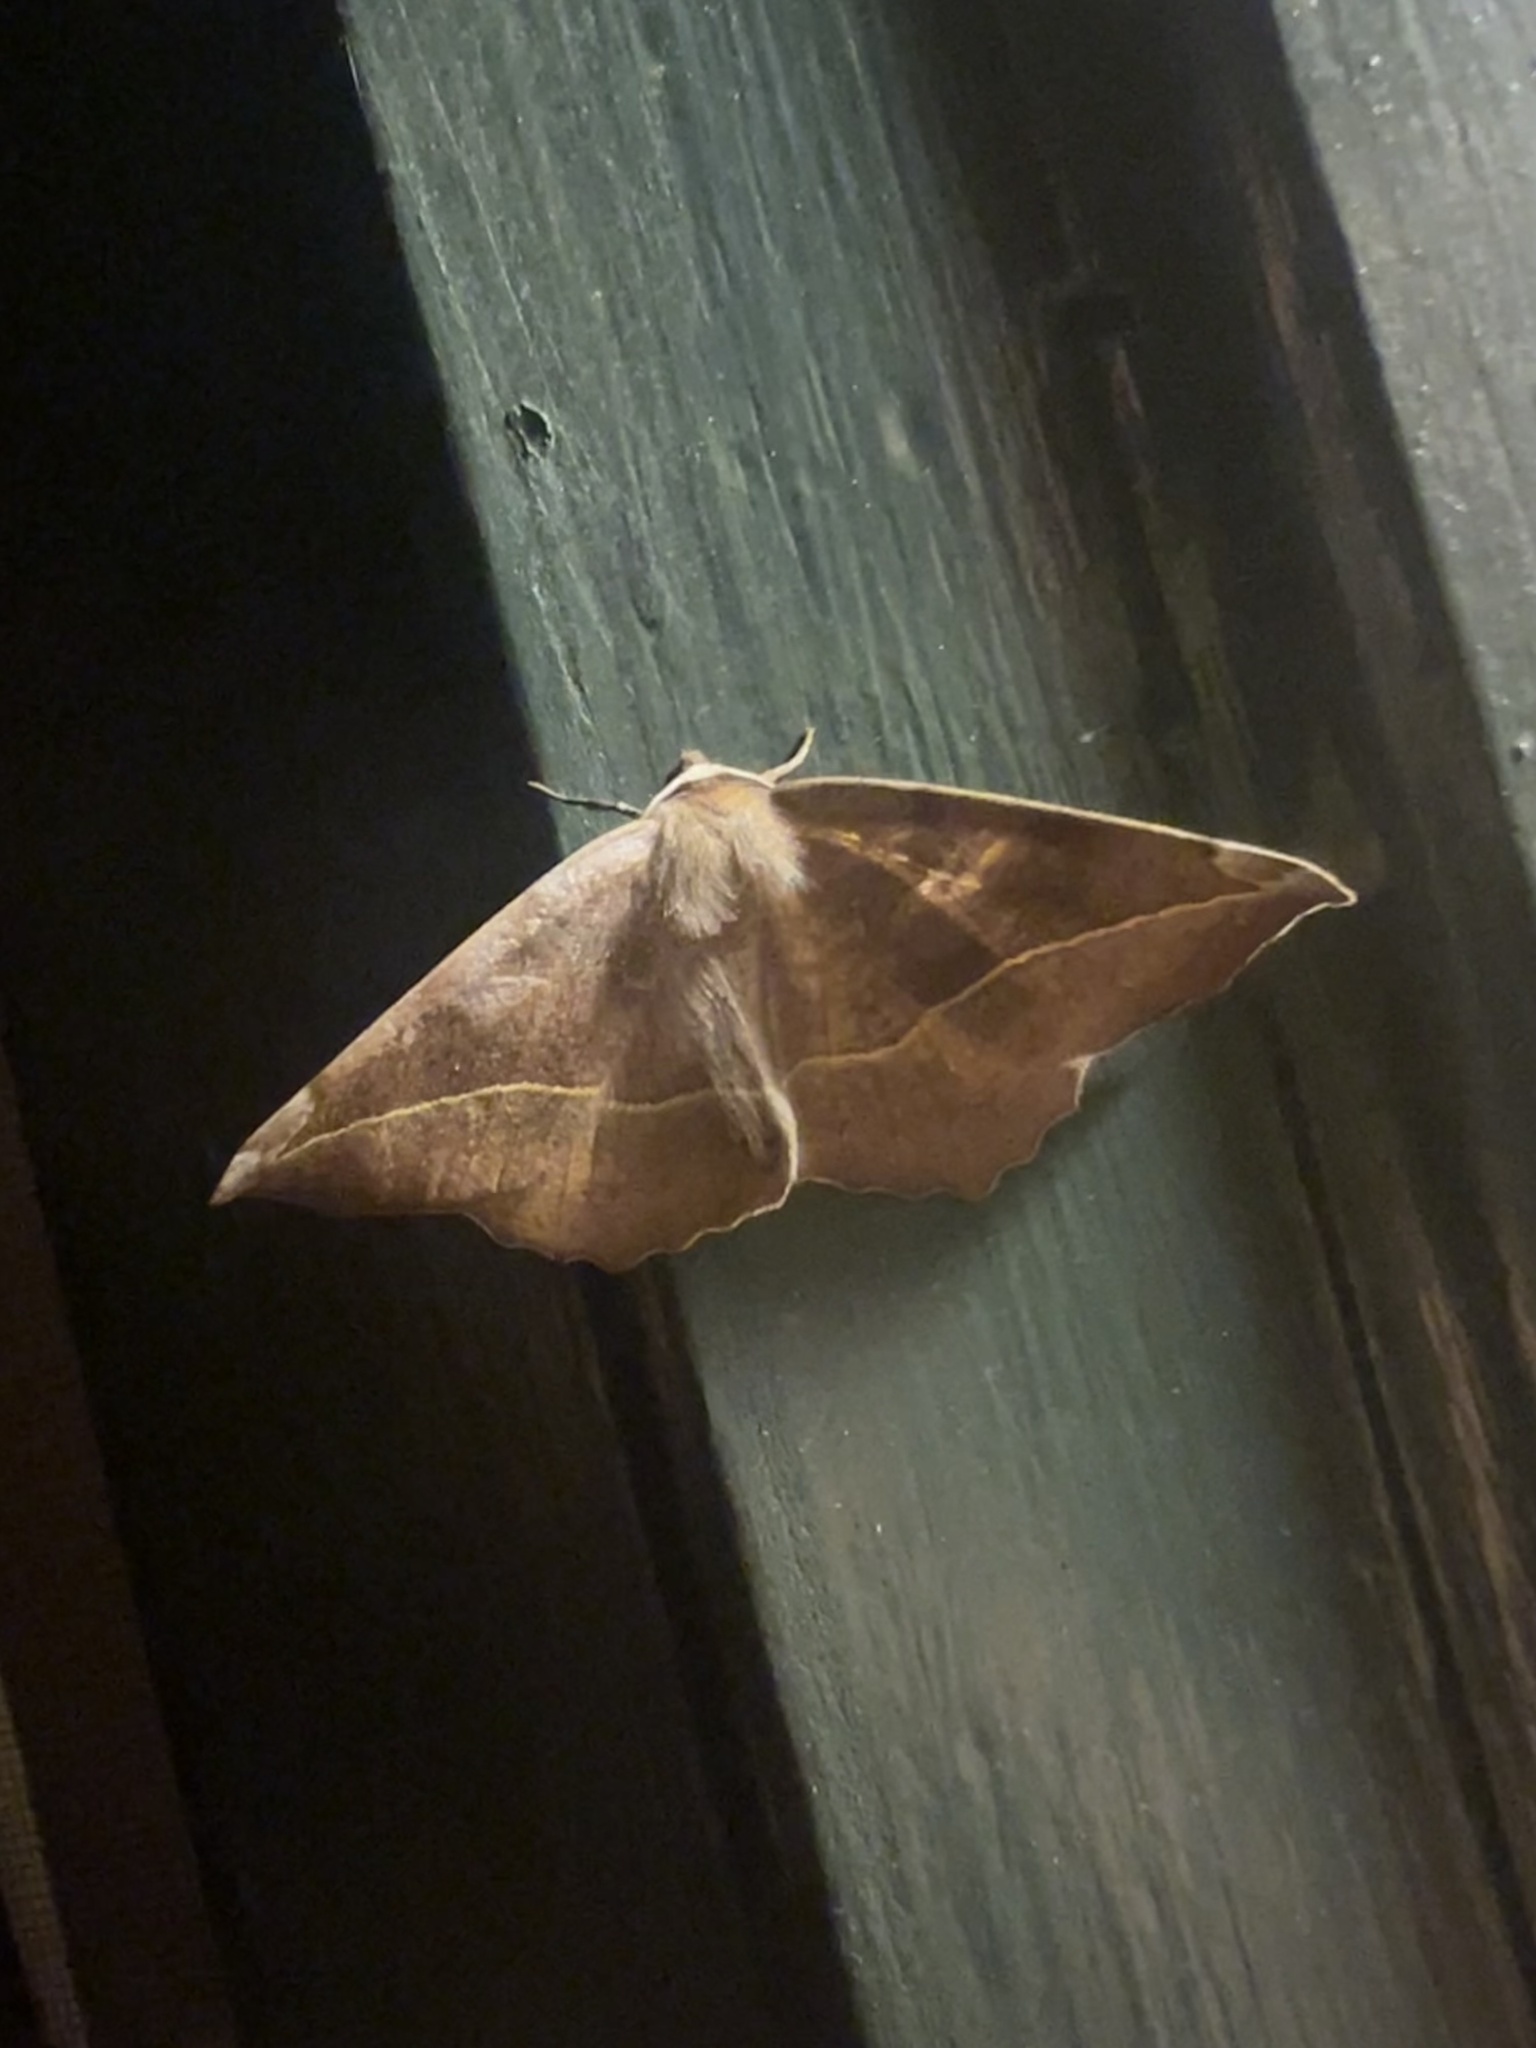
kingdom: Animalia
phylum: Arthropoda
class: Insecta
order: Lepidoptera
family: Geometridae
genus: Eutrapela
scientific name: Eutrapela clemataria
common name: Curved-toothed geometer
